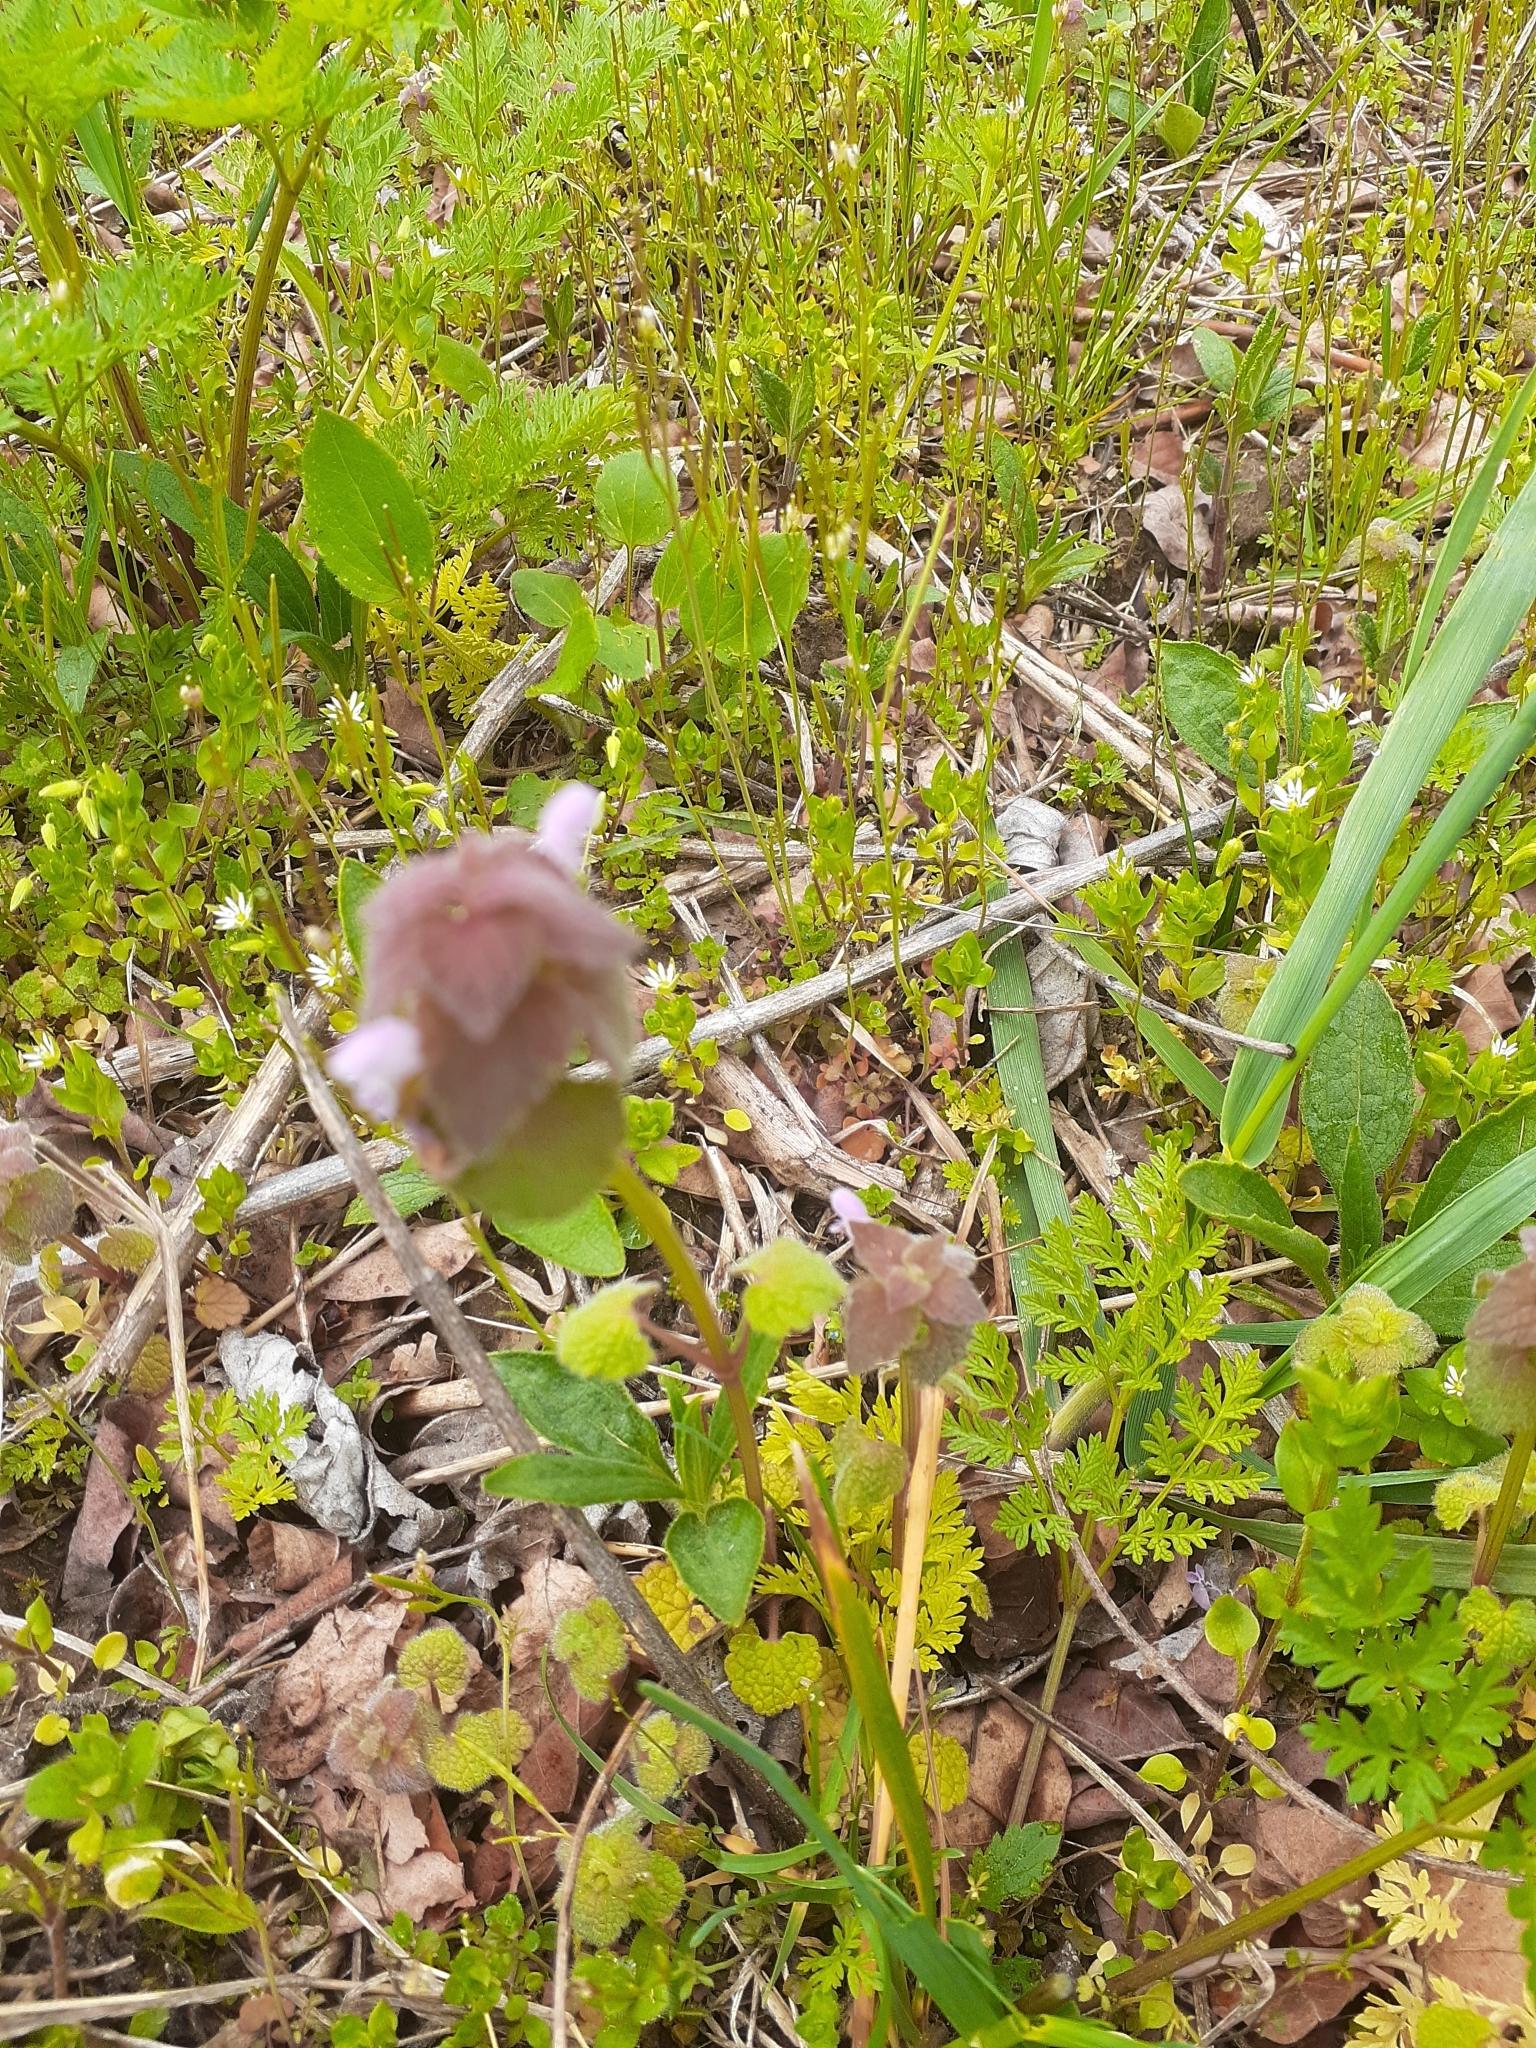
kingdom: Plantae
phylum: Tracheophyta
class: Magnoliopsida
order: Lamiales
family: Lamiaceae
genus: Lamium
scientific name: Lamium purpureum
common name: Red dead-nettle
